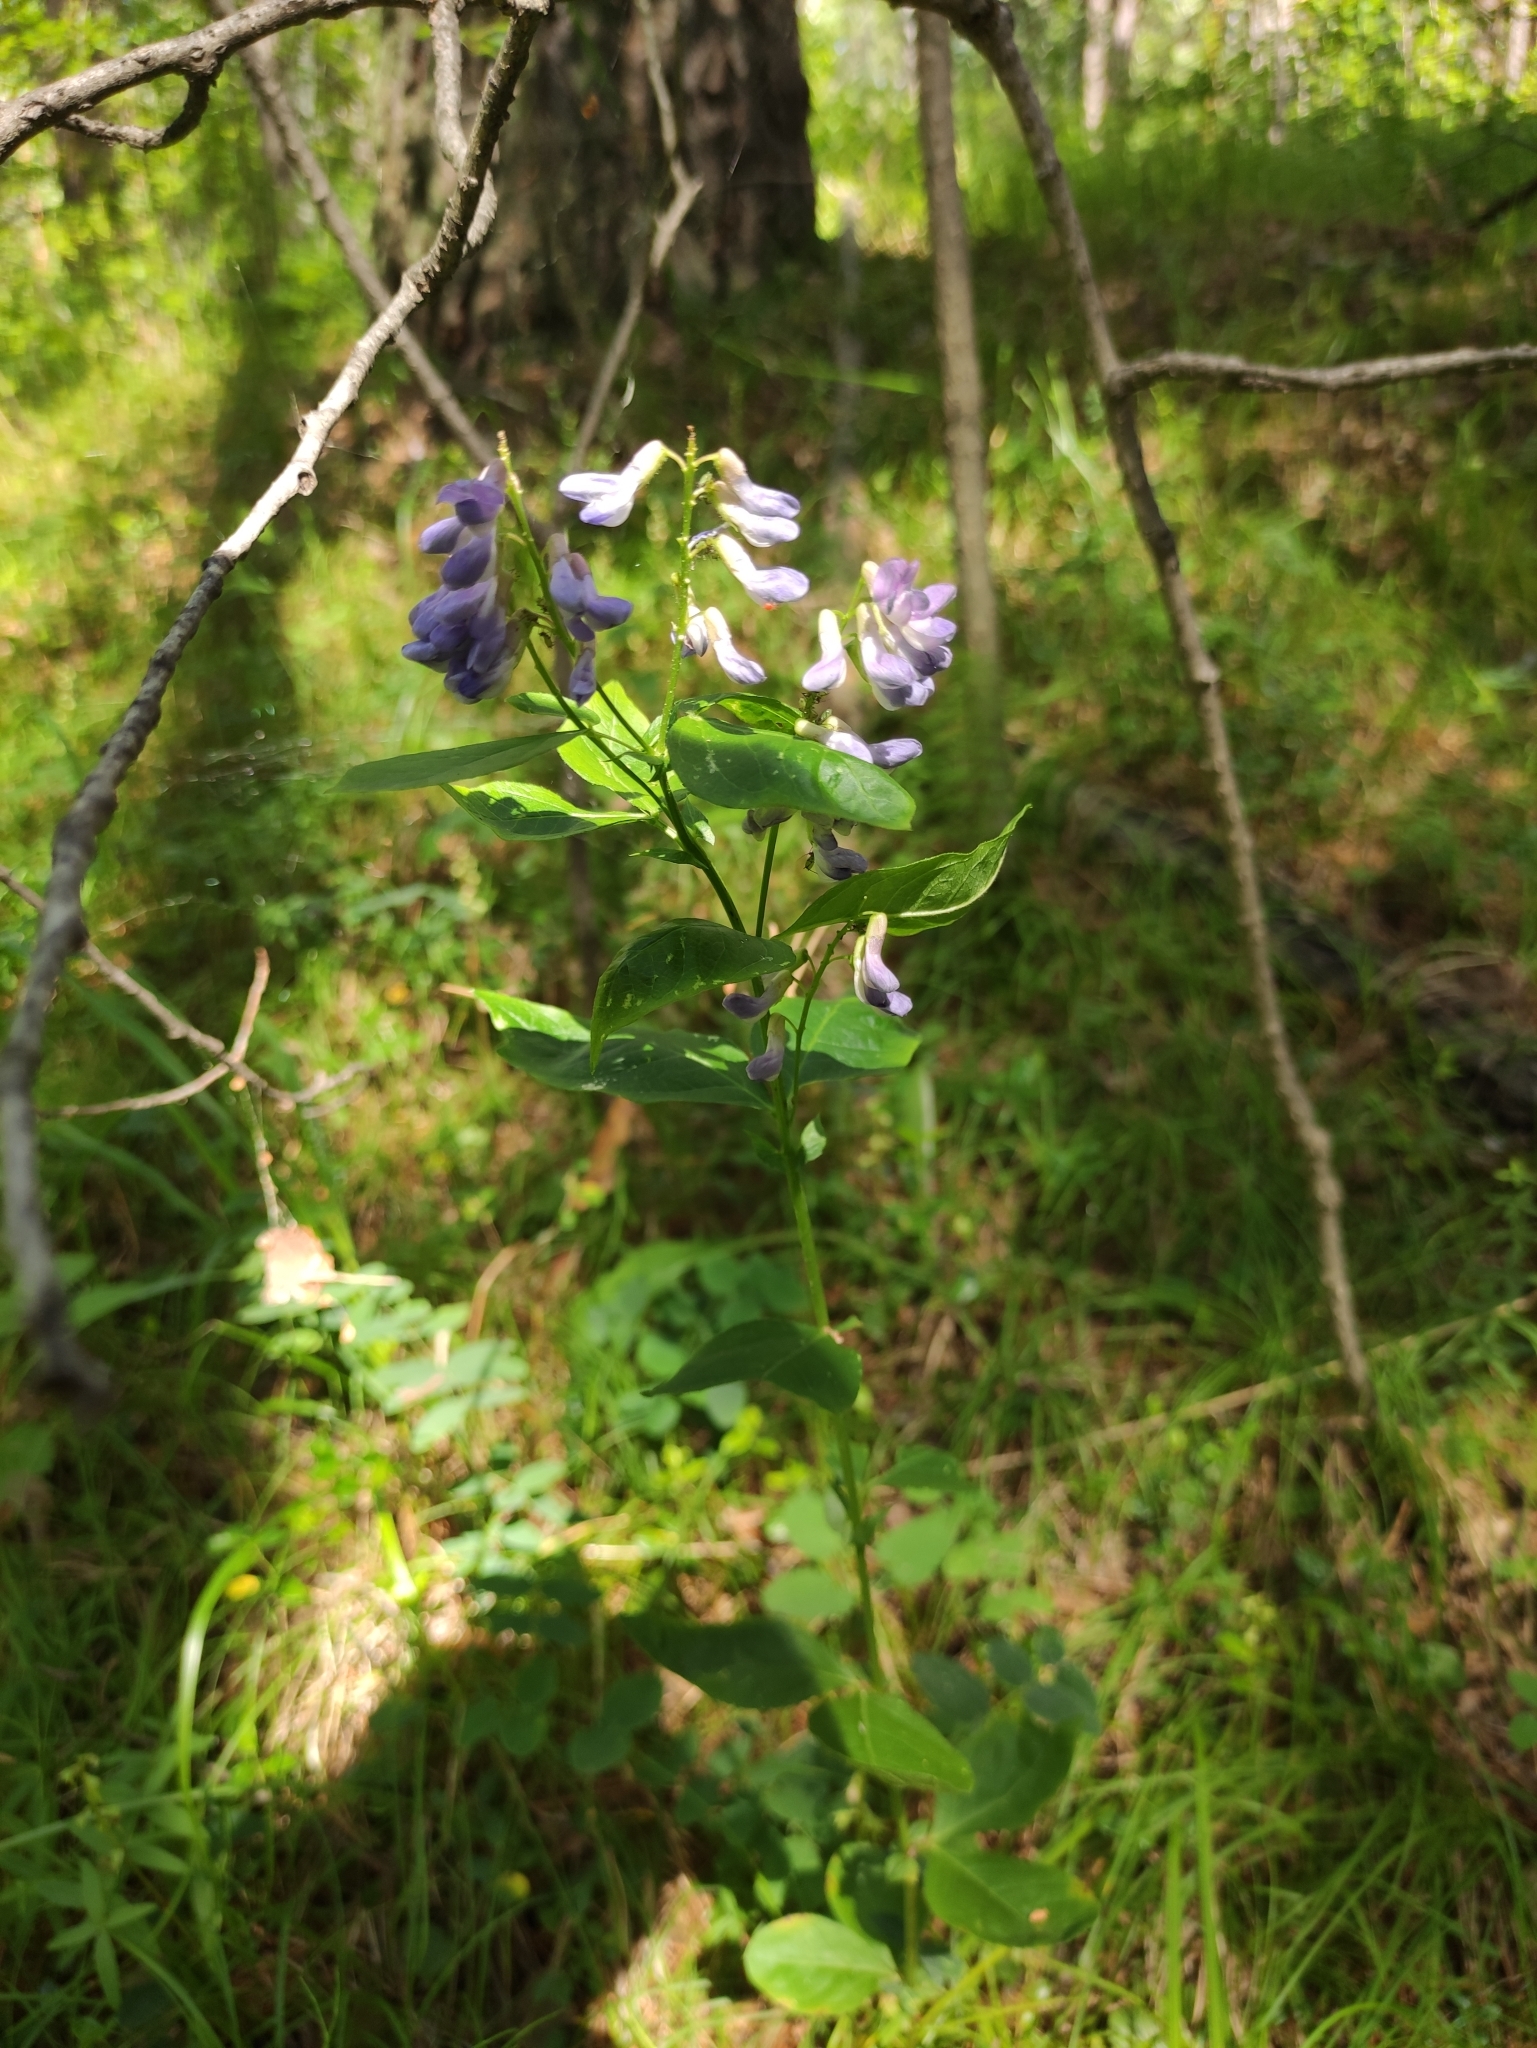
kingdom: Plantae
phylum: Tracheophyta
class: Magnoliopsida
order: Fabales
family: Fabaceae
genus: Vicia
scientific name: Vicia unijuga
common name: Two-leaf vetch
